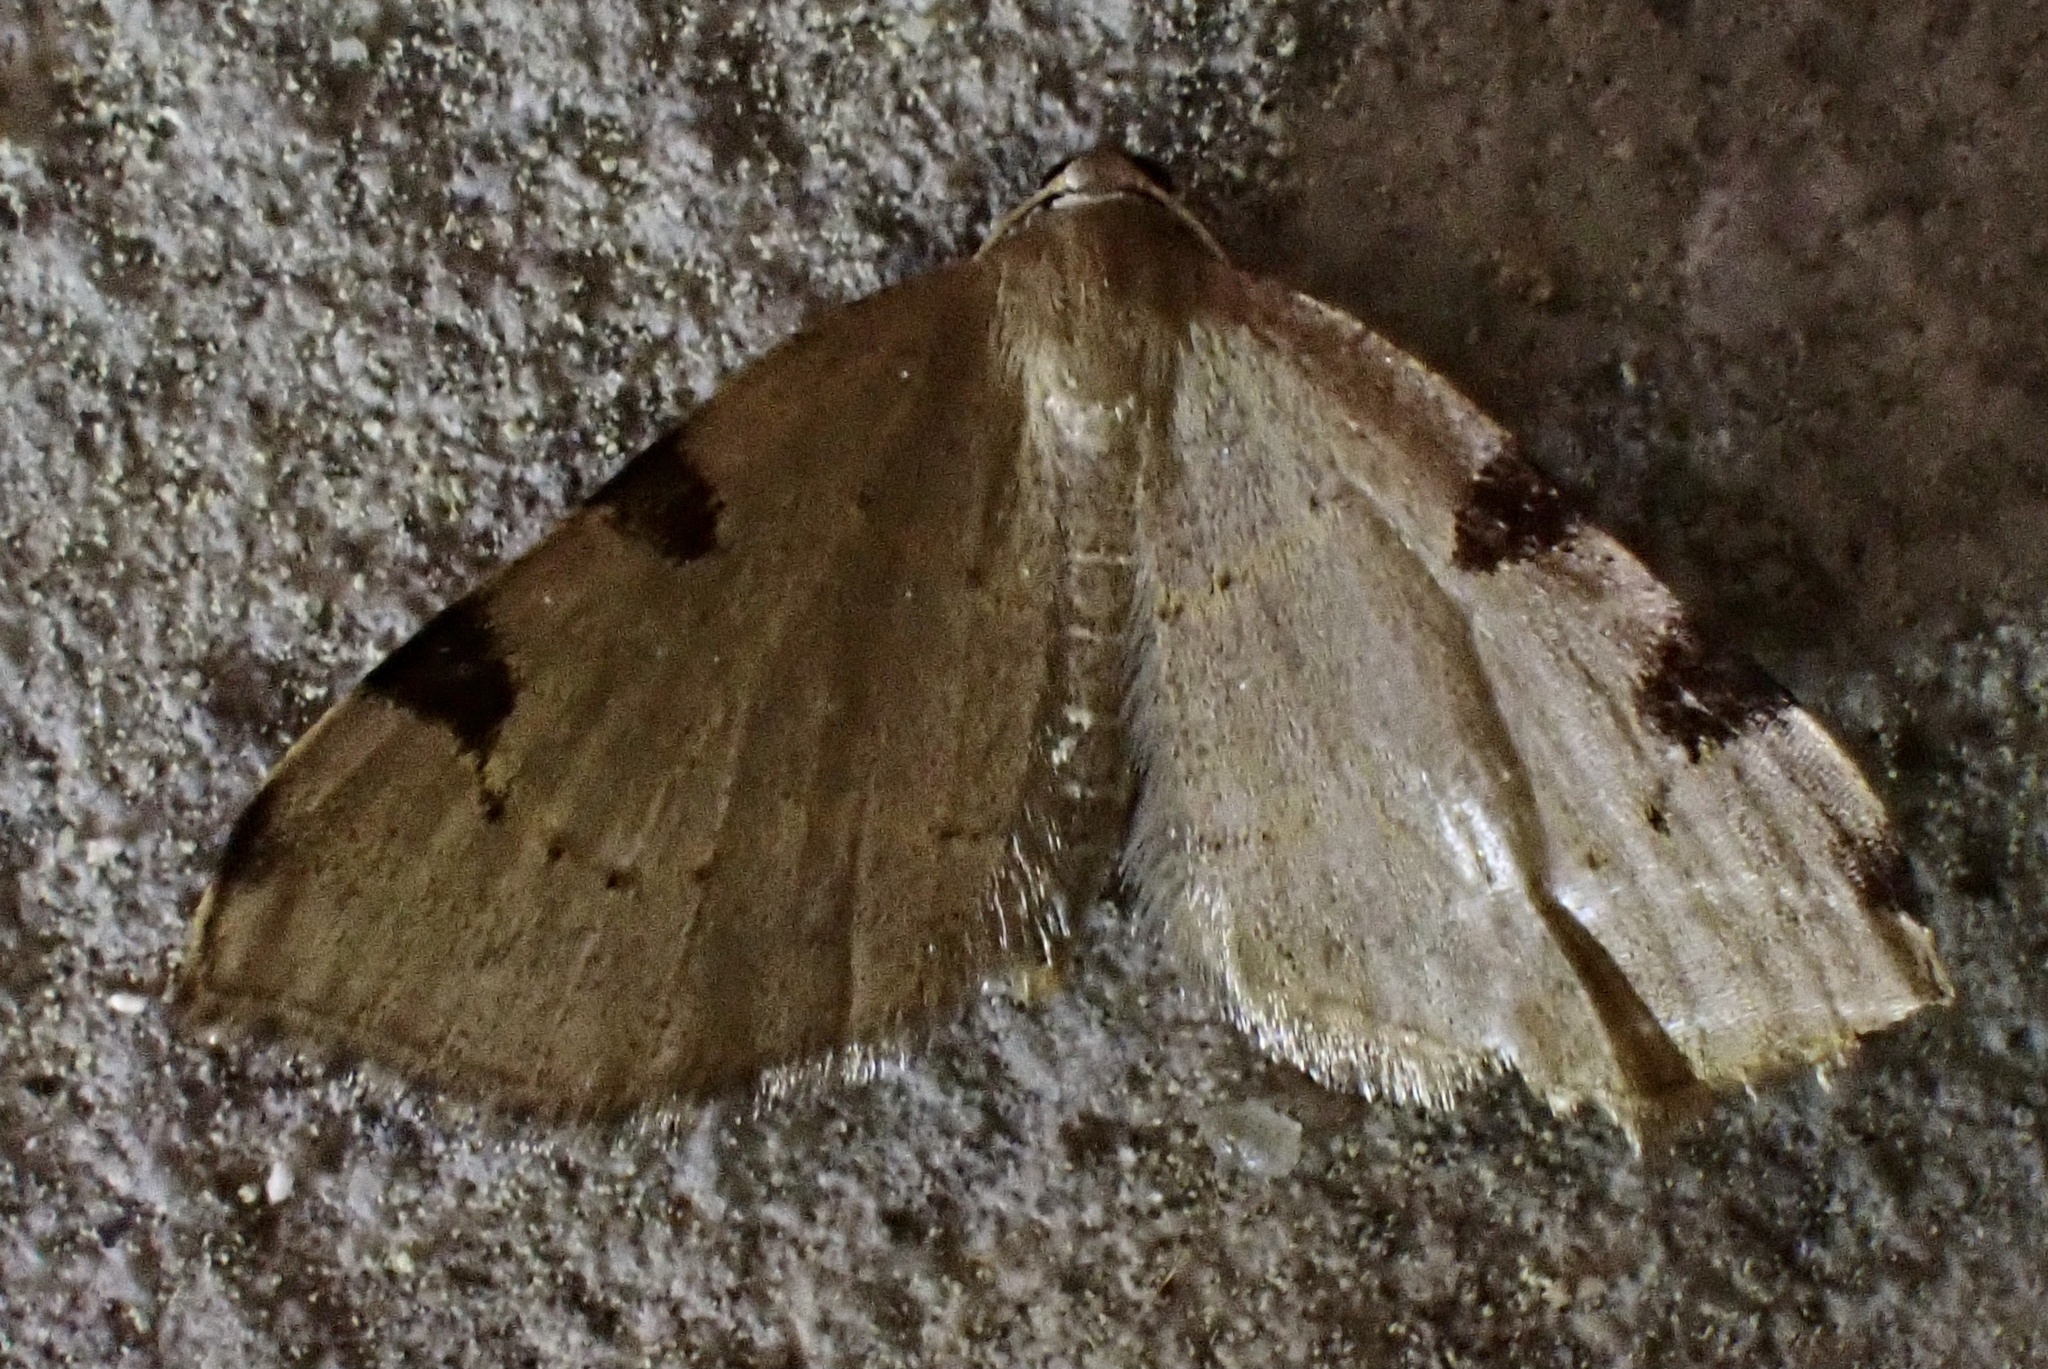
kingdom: Animalia
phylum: Arthropoda
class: Insecta
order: Lepidoptera
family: Geometridae
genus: Heterophleps
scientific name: Heterophleps triguttaria
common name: Three-spotted fillip
